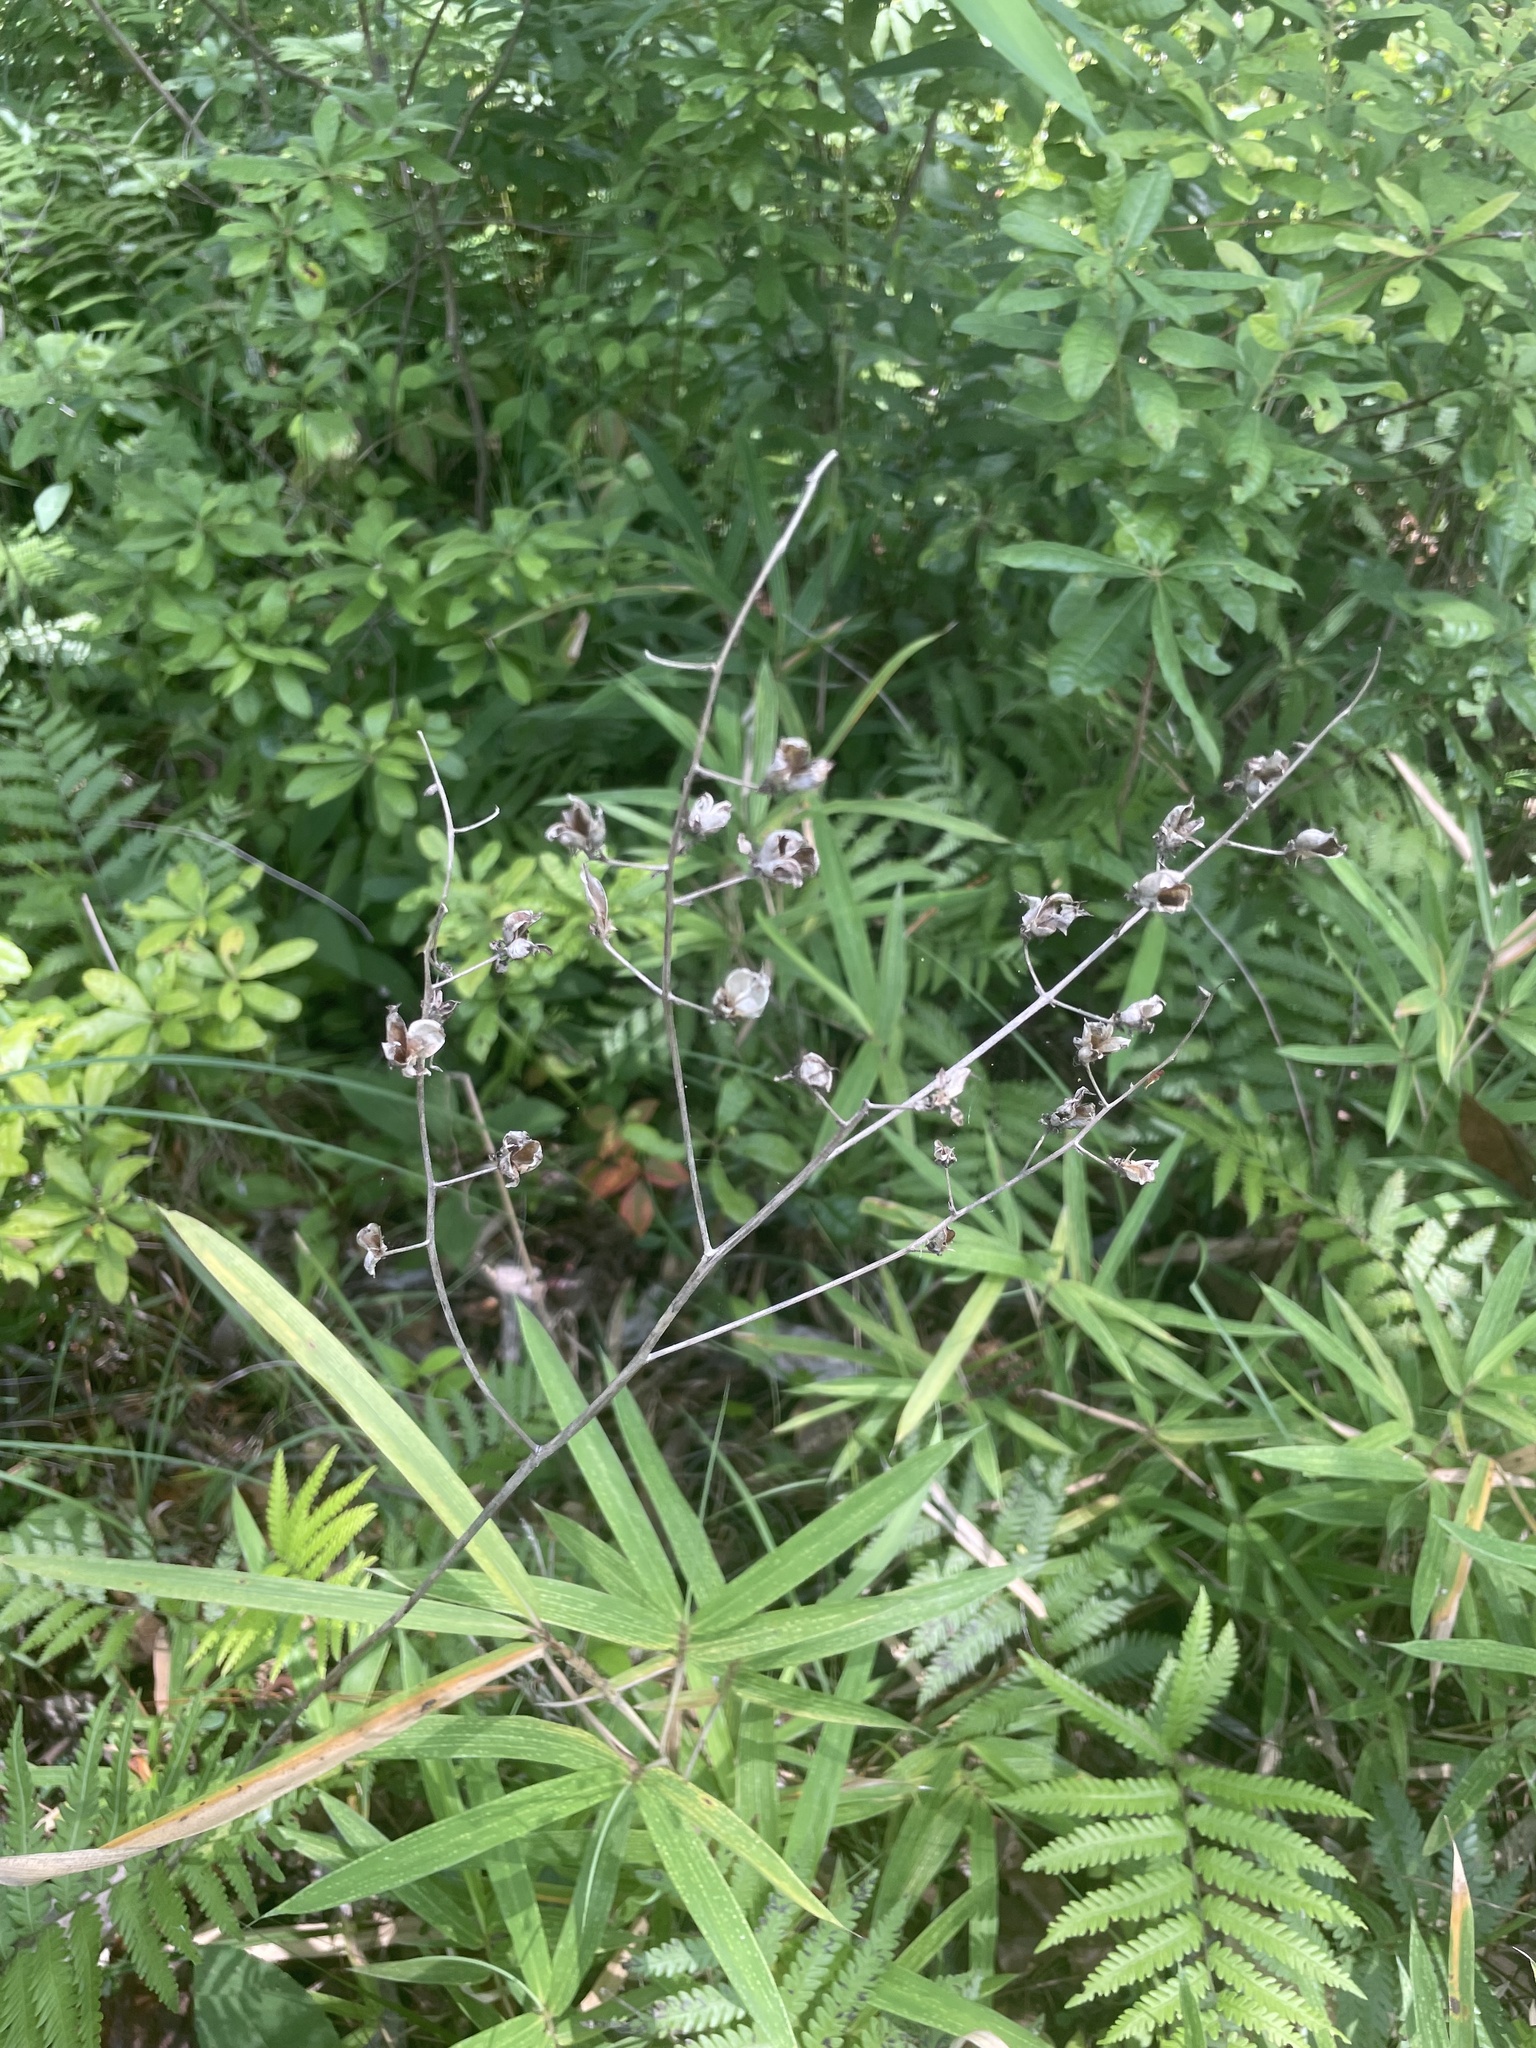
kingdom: Plantae
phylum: Tracheophyta
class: Liliopsida
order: Liliales
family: Melanthiaceae
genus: Melanthium
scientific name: Melanthium virginicum
